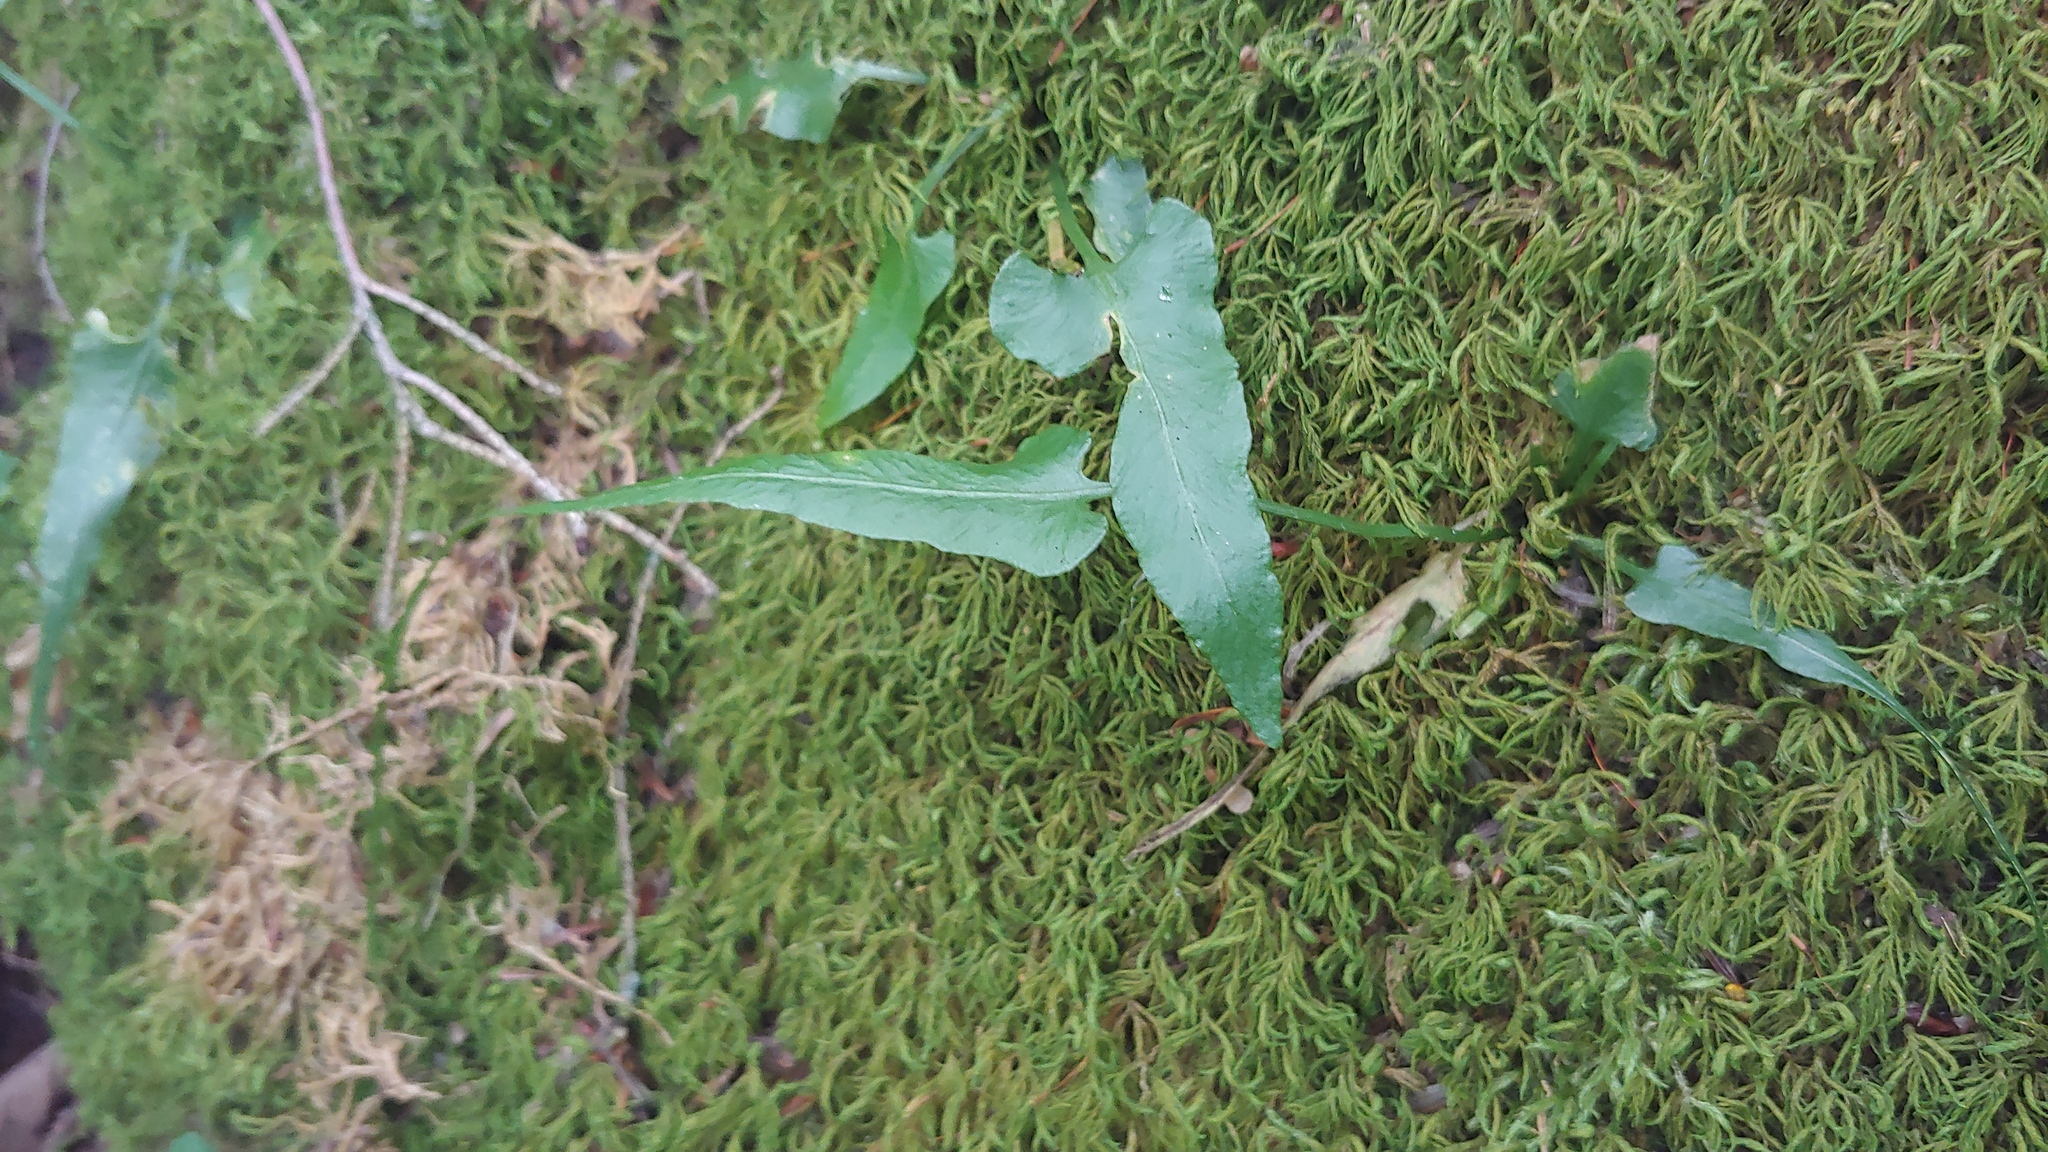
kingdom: Plantae
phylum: Tracheophyta
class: Polypodiopsida
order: Polypodiales
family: Aspleniaceae
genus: Asplenium
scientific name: Asplenium rhizophyllum
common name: Walking fern
